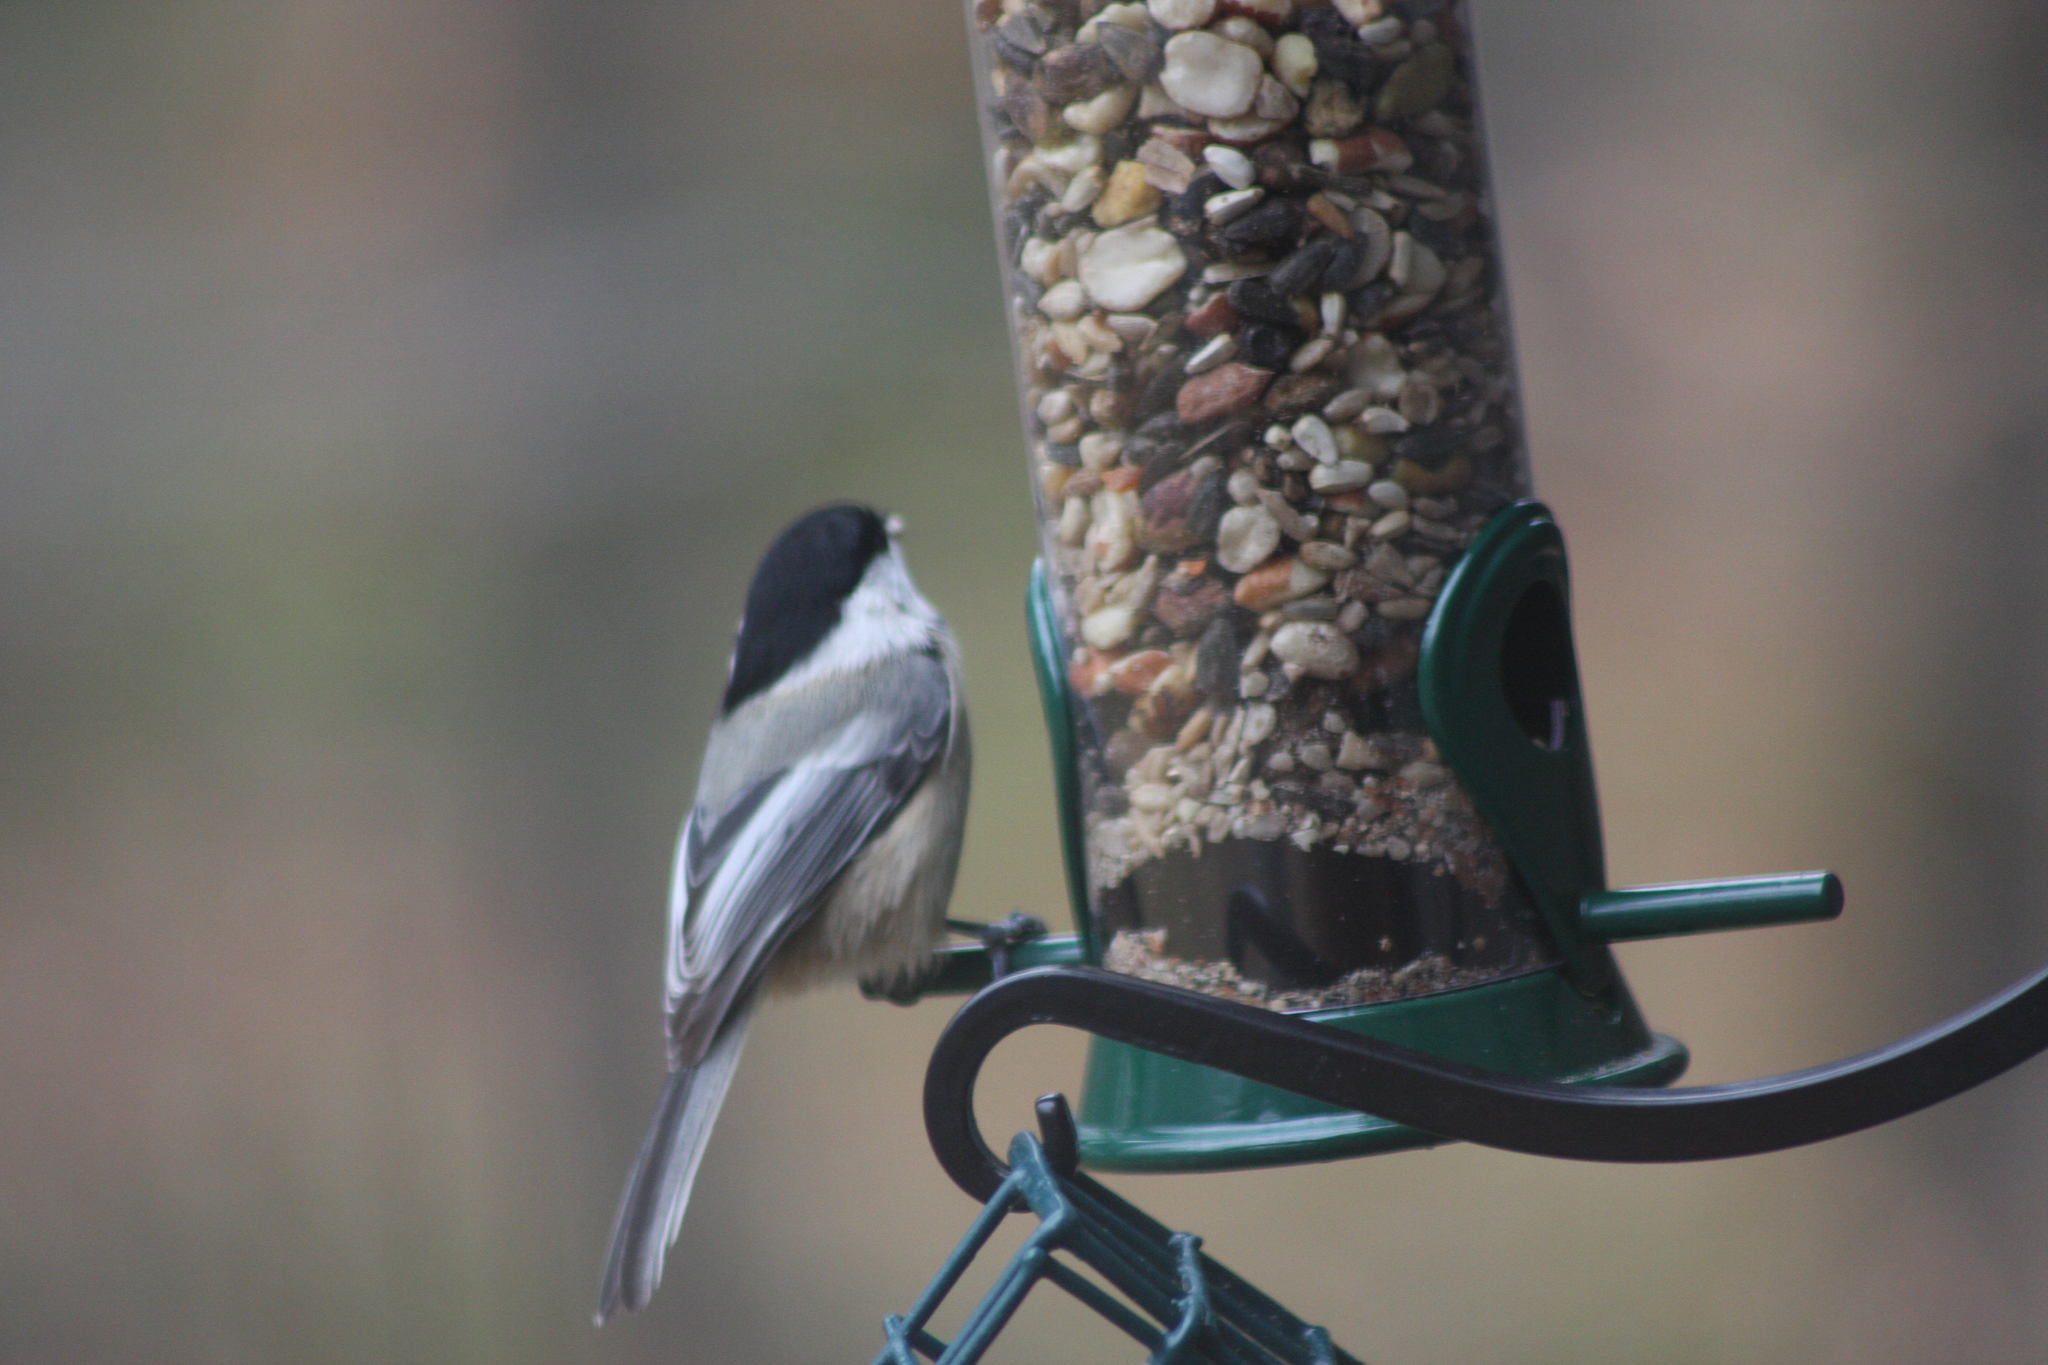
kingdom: Animalia
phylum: Chordata
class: Aves
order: Passeriformes
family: Paridae
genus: Poecile
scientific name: Poecile atricapillus
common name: Black-capped chickadee
